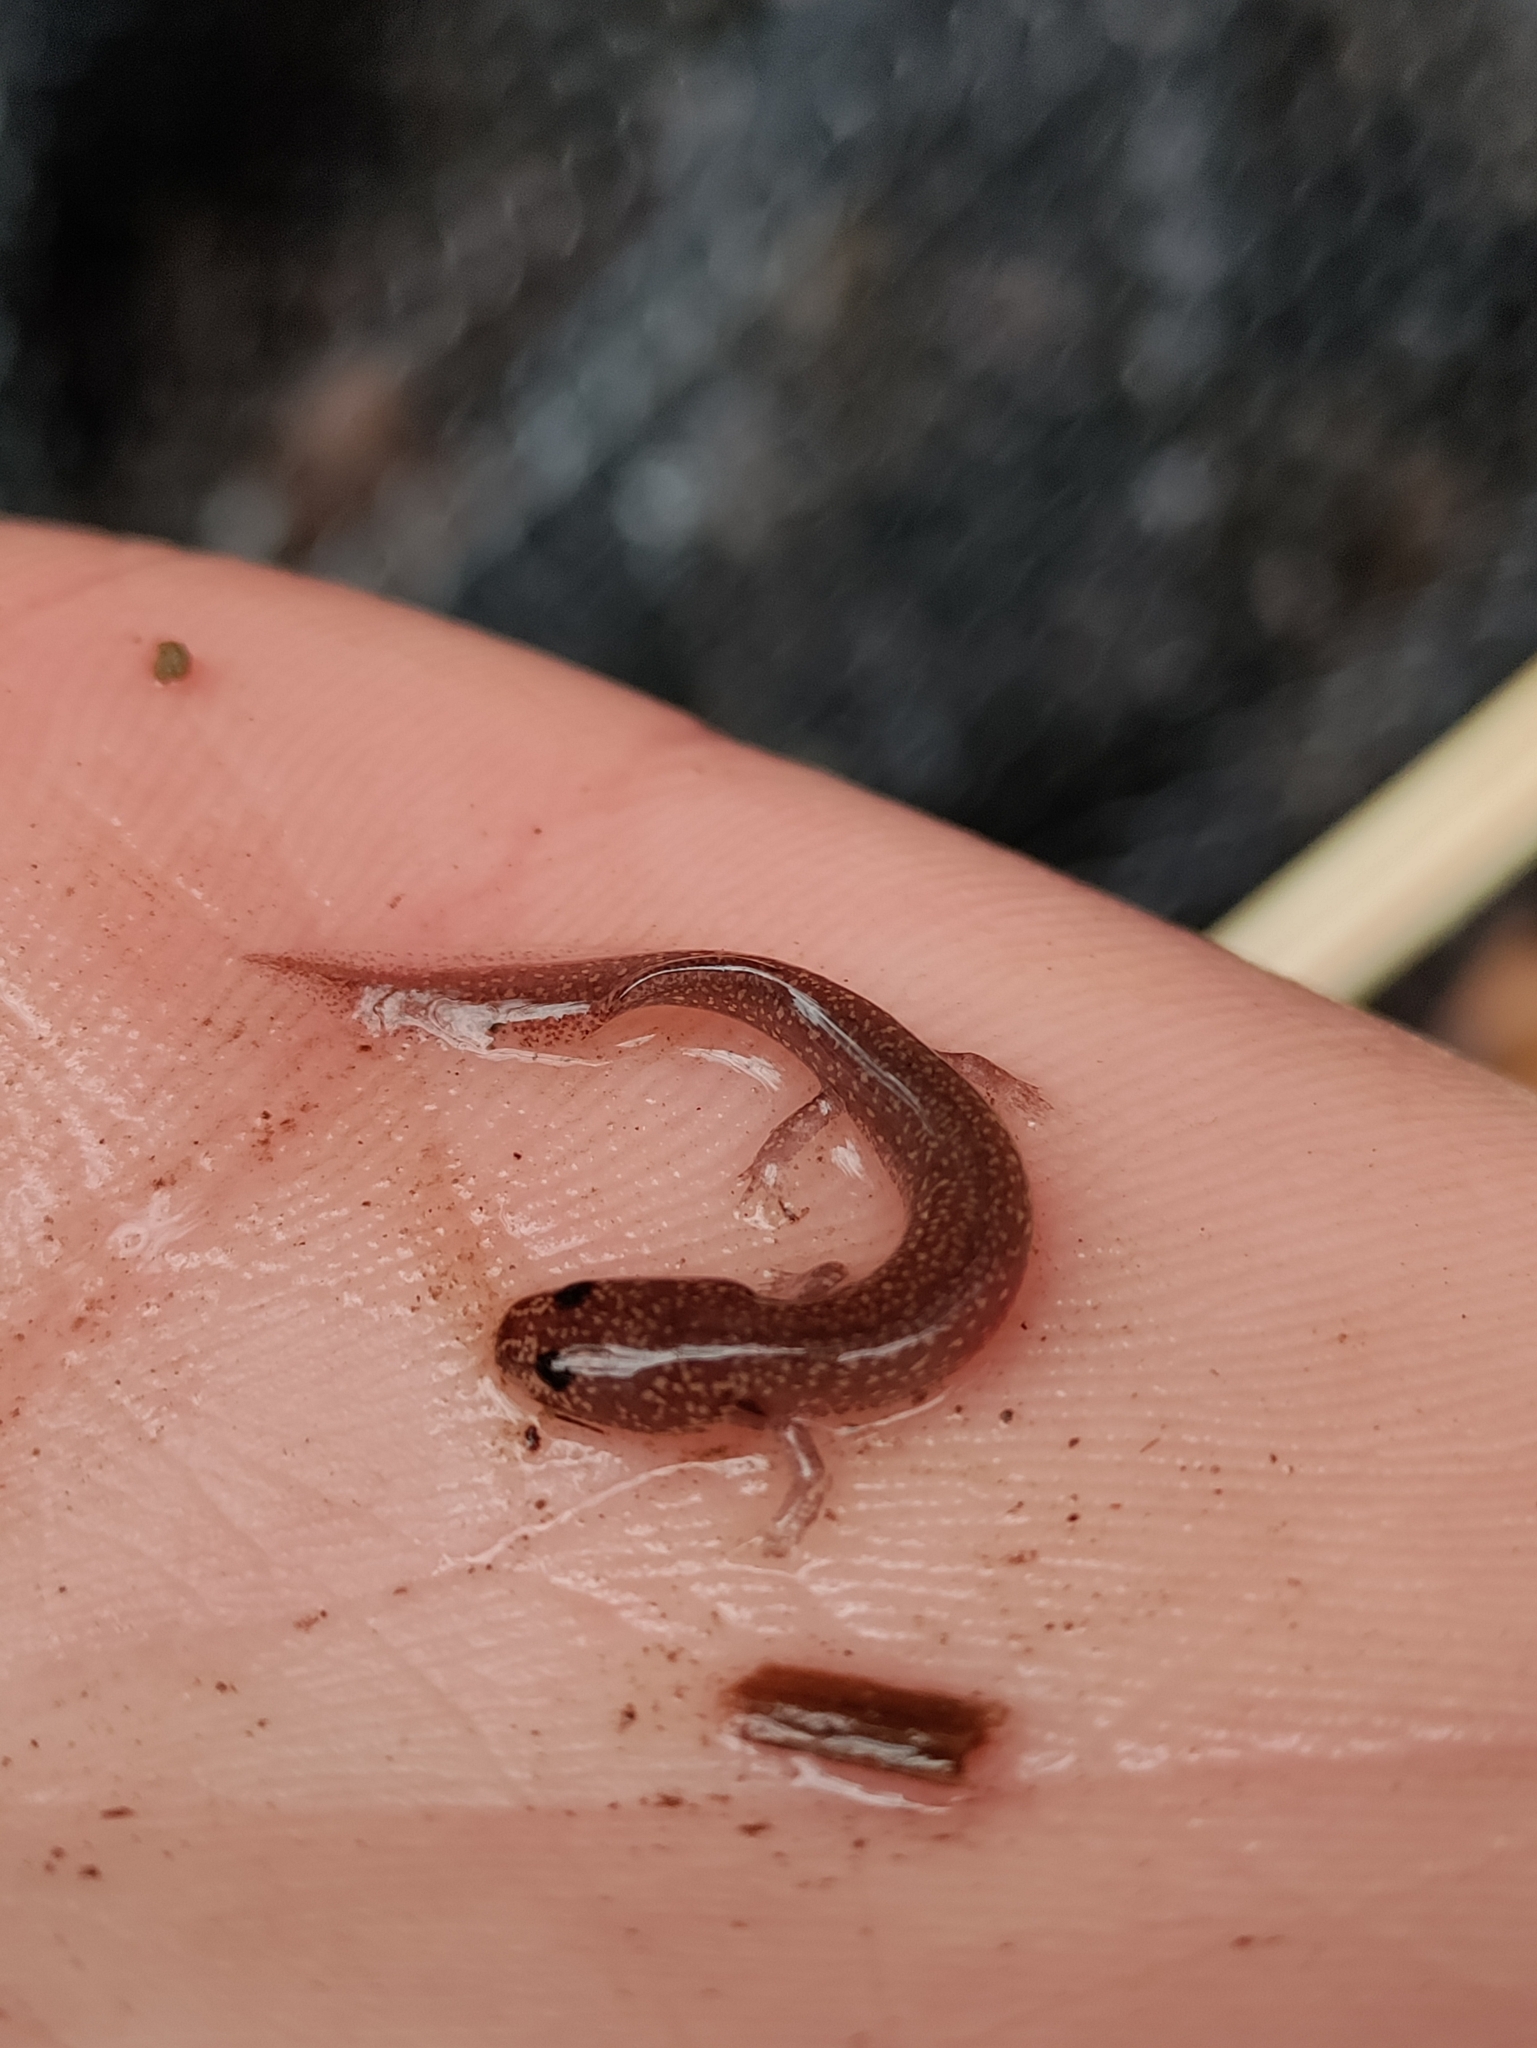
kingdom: Animalia
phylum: Chordata
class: Amphibia
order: Caudata
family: Plethodontidae
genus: Gyrinophilus
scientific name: Gyrinophilus porphyriticus
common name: Spring salamander
